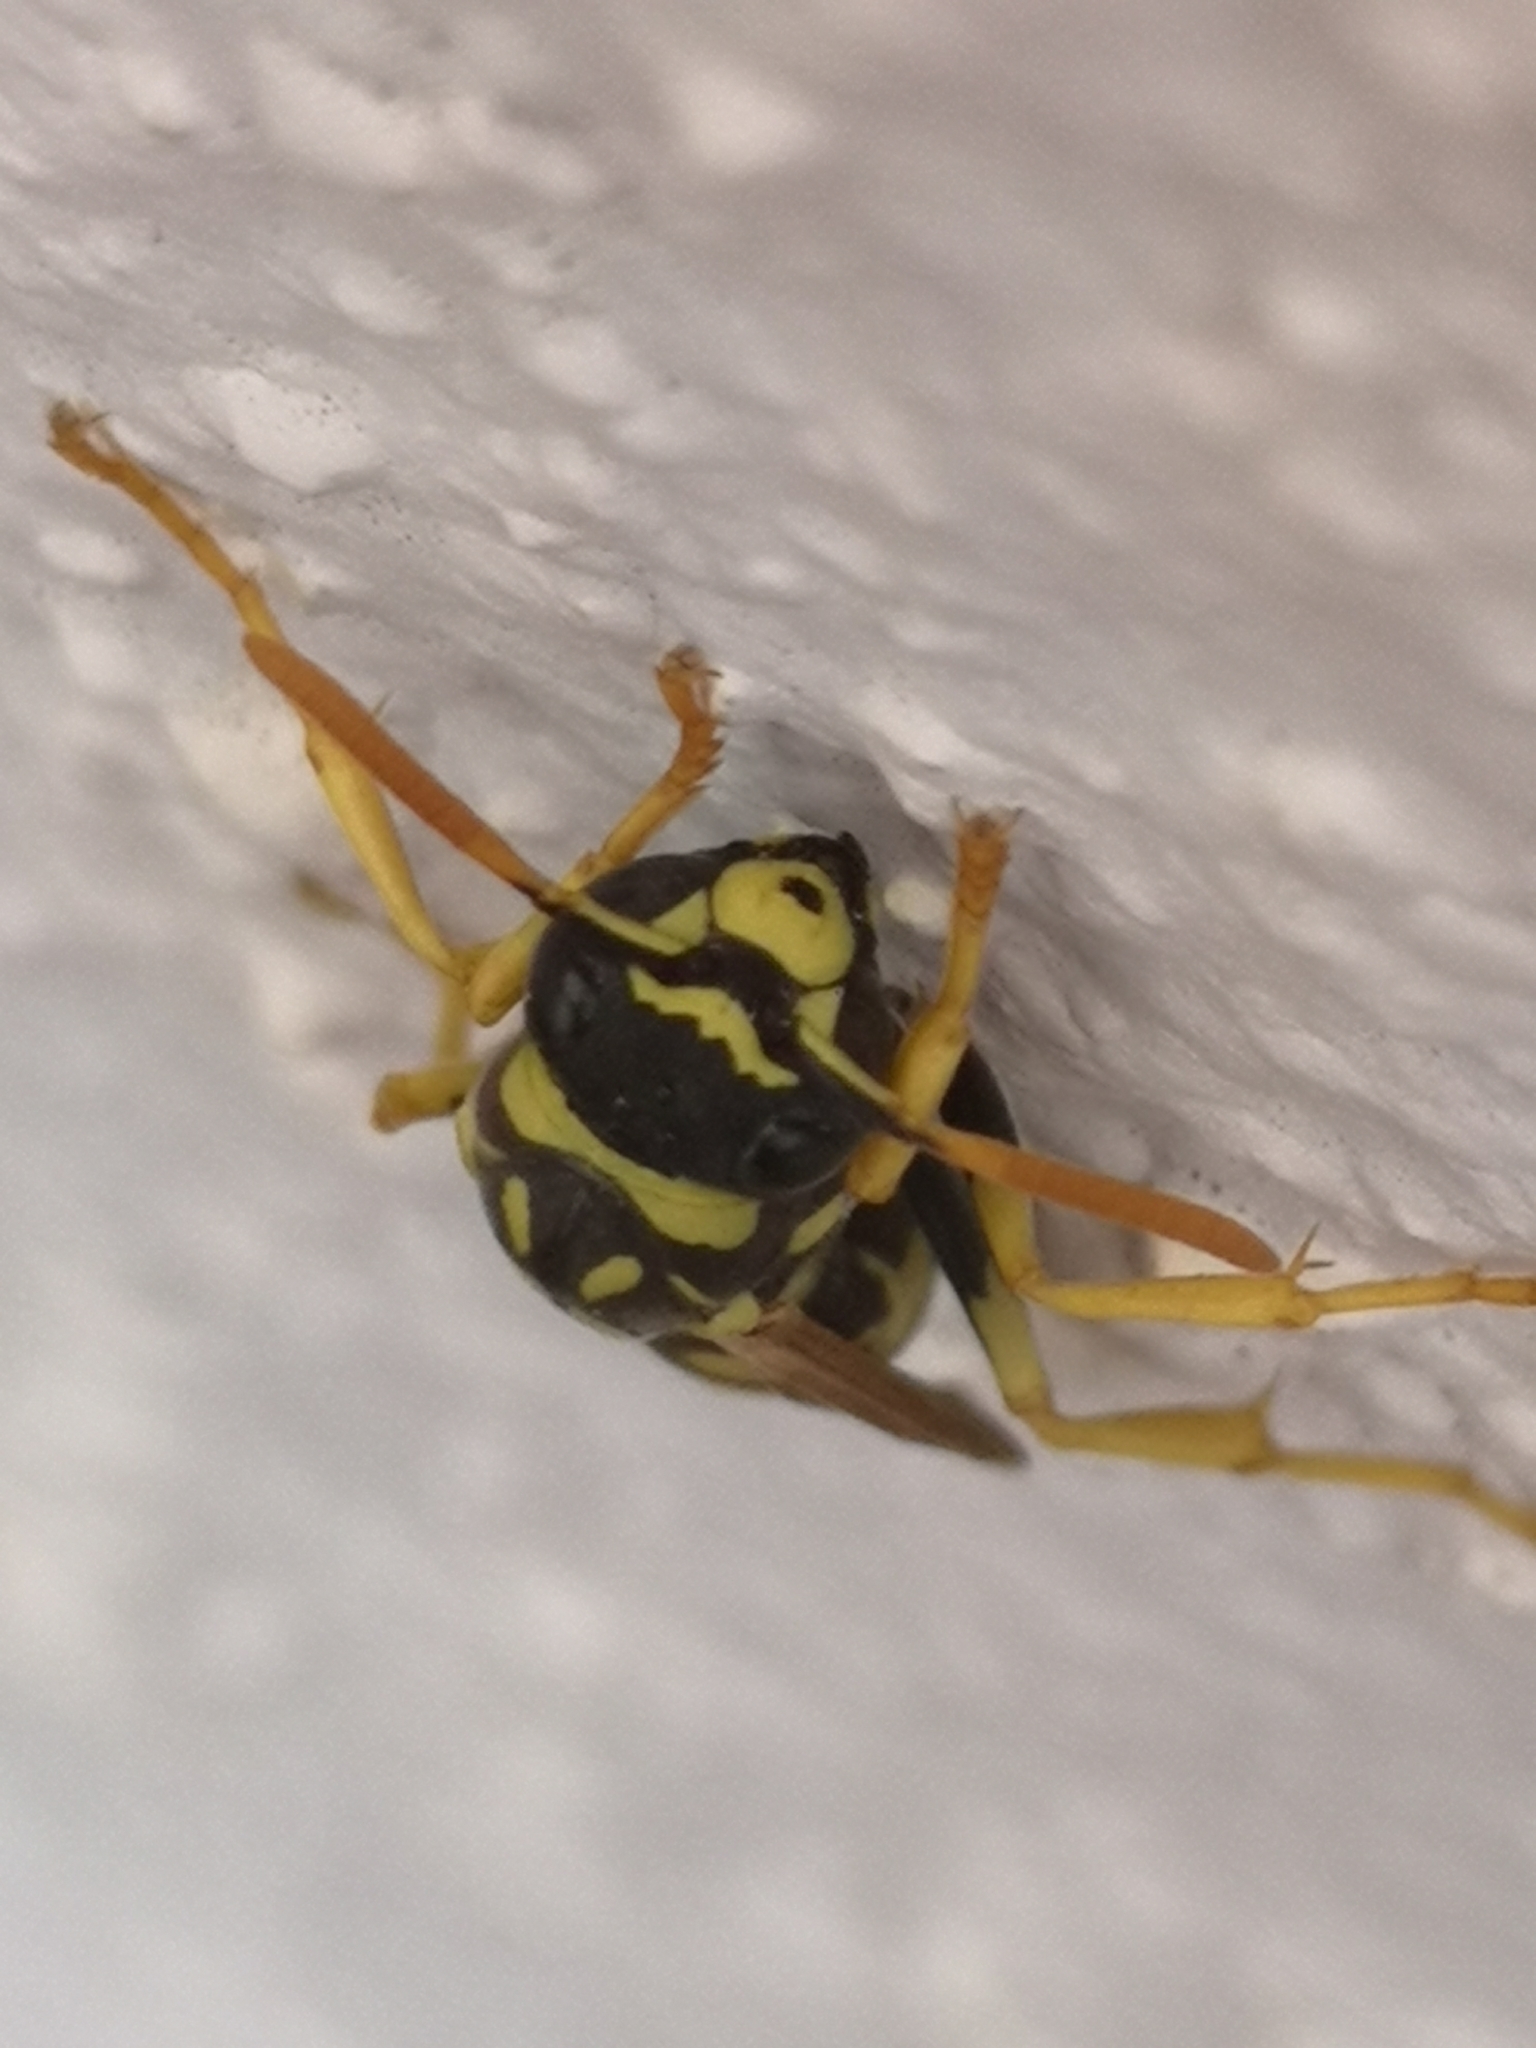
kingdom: Animalia
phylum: Arthropoda
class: Insecta
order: Hymenoptera
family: Eumenidae
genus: Polistes
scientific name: Polistes gallicus
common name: Paper wasp
